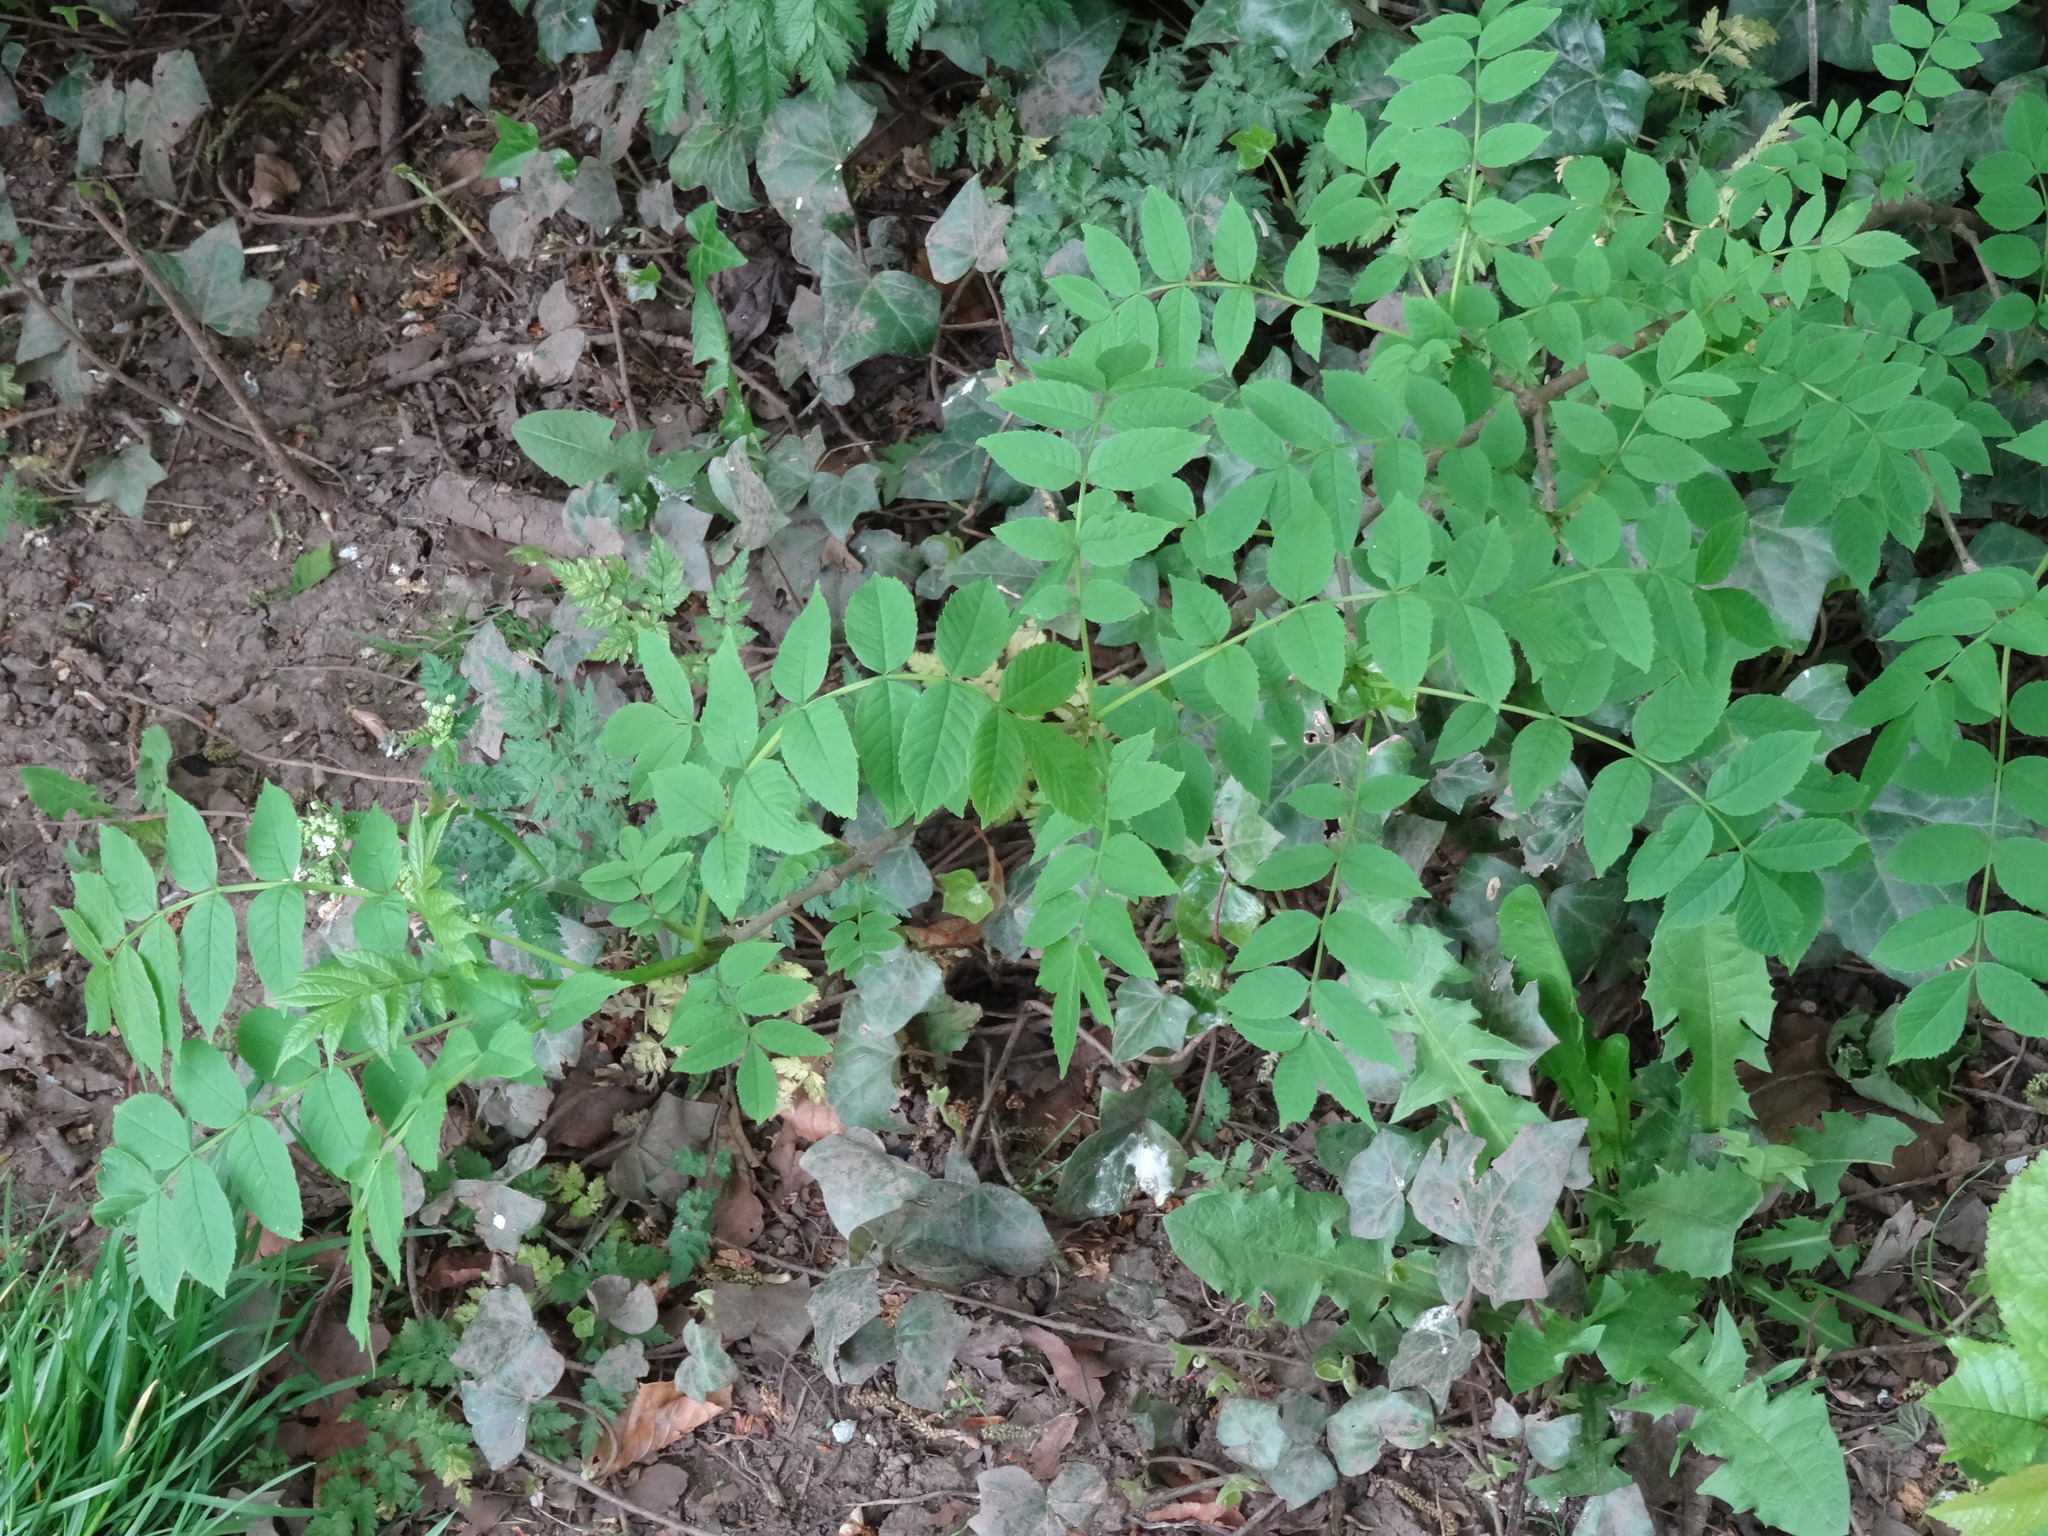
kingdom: Plantae
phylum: Tracheophyta
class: Magnoliopsida
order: Lamiales
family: Oleaceae
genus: Fraxinus
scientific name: Fraxinus excelsior
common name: European ash
